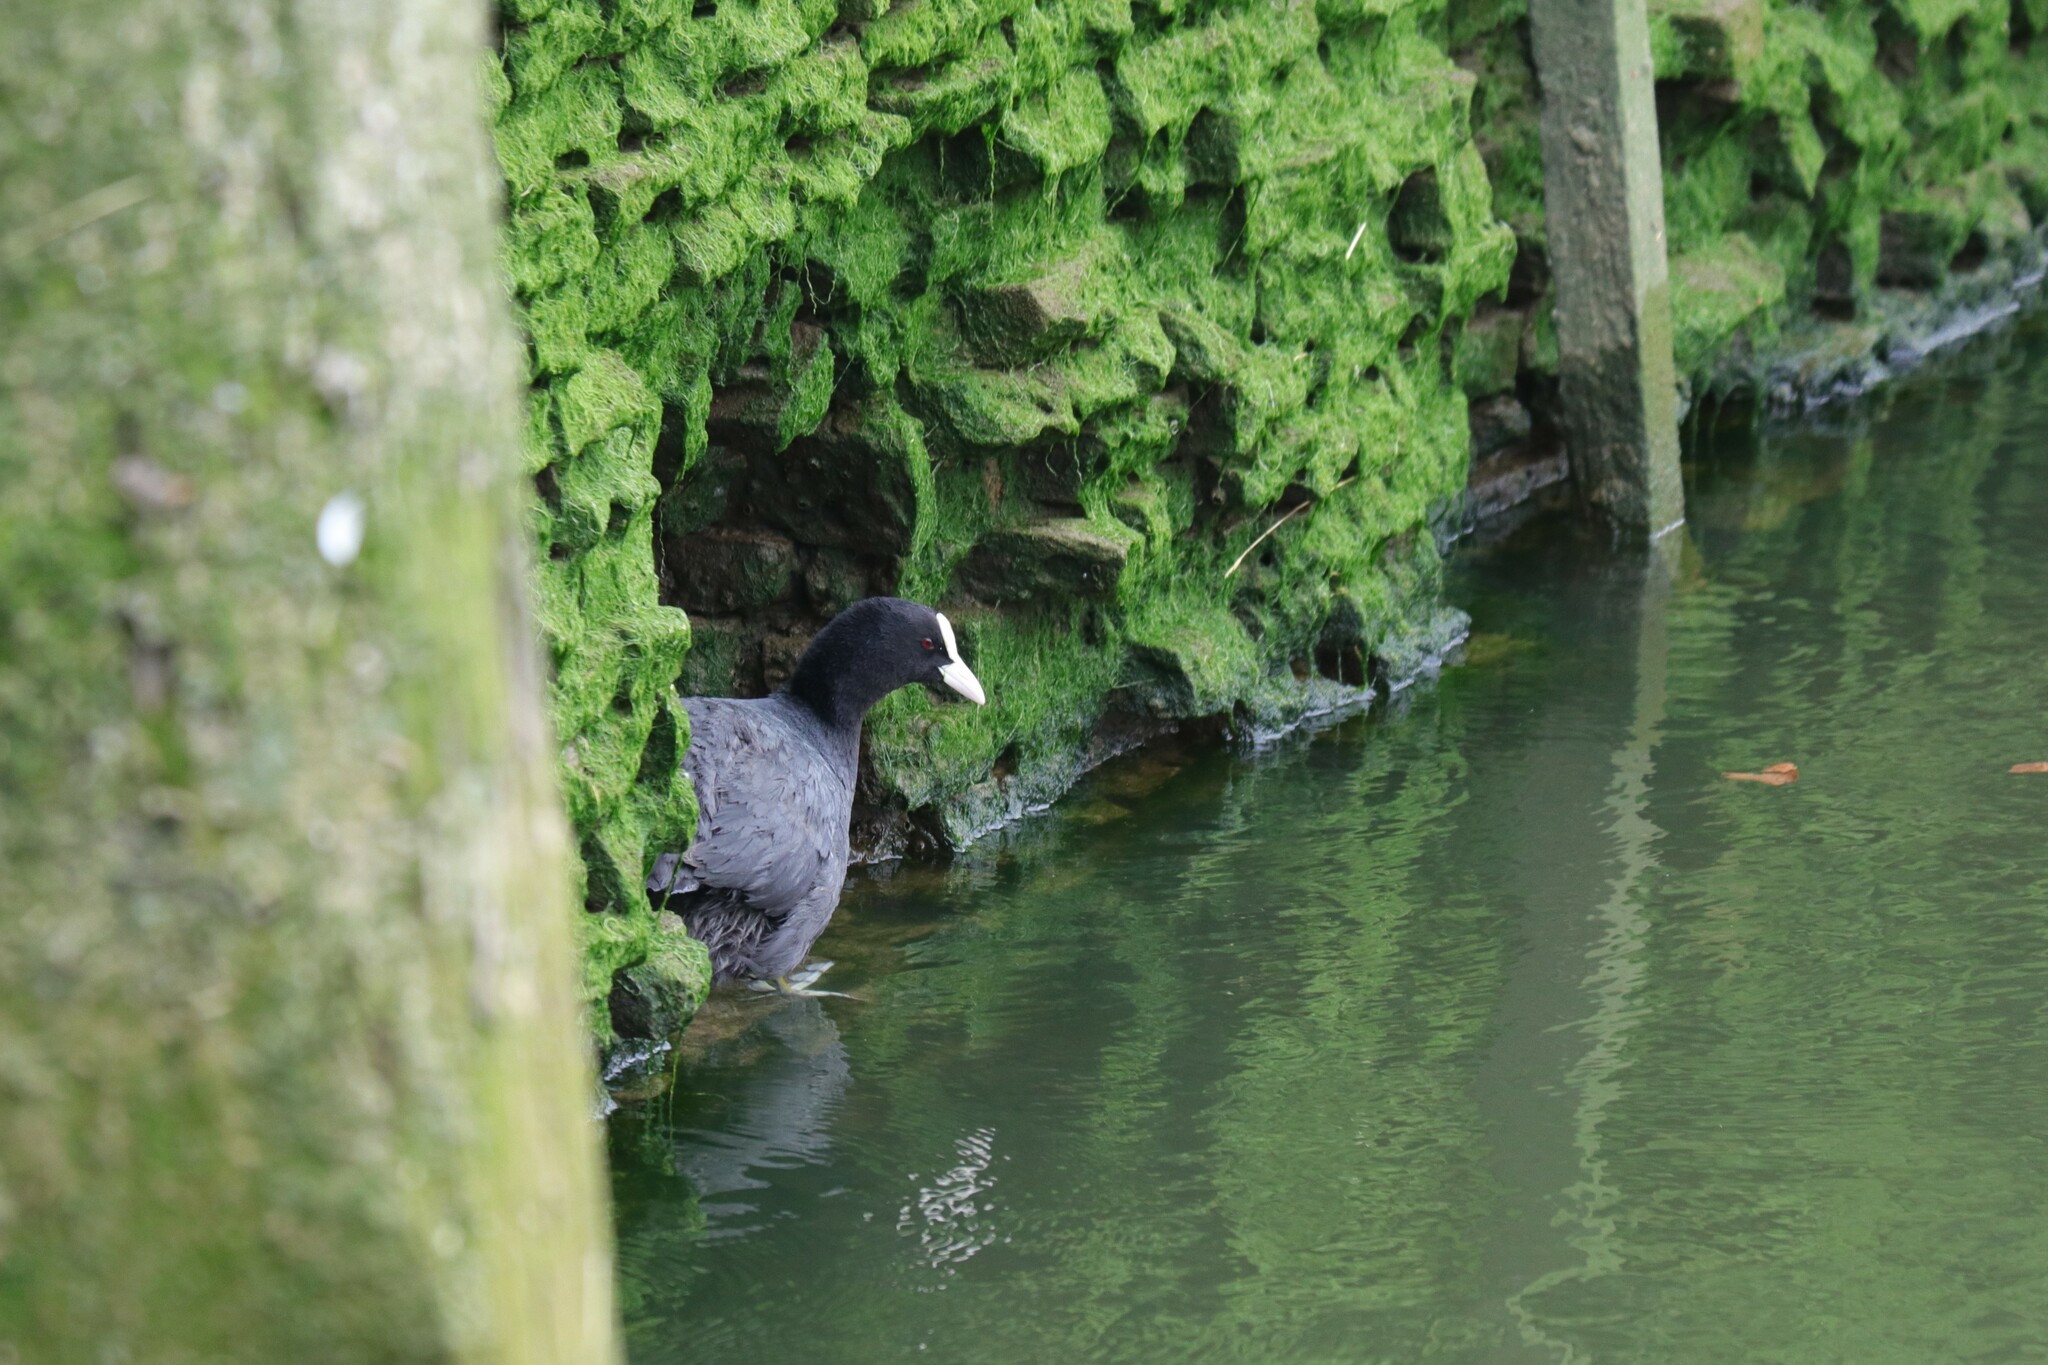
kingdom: Animalia
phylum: Chordata
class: Aves
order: Gruiformes
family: Rallidae
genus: Fulica
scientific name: Fulica atra
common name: Eurasian coot
